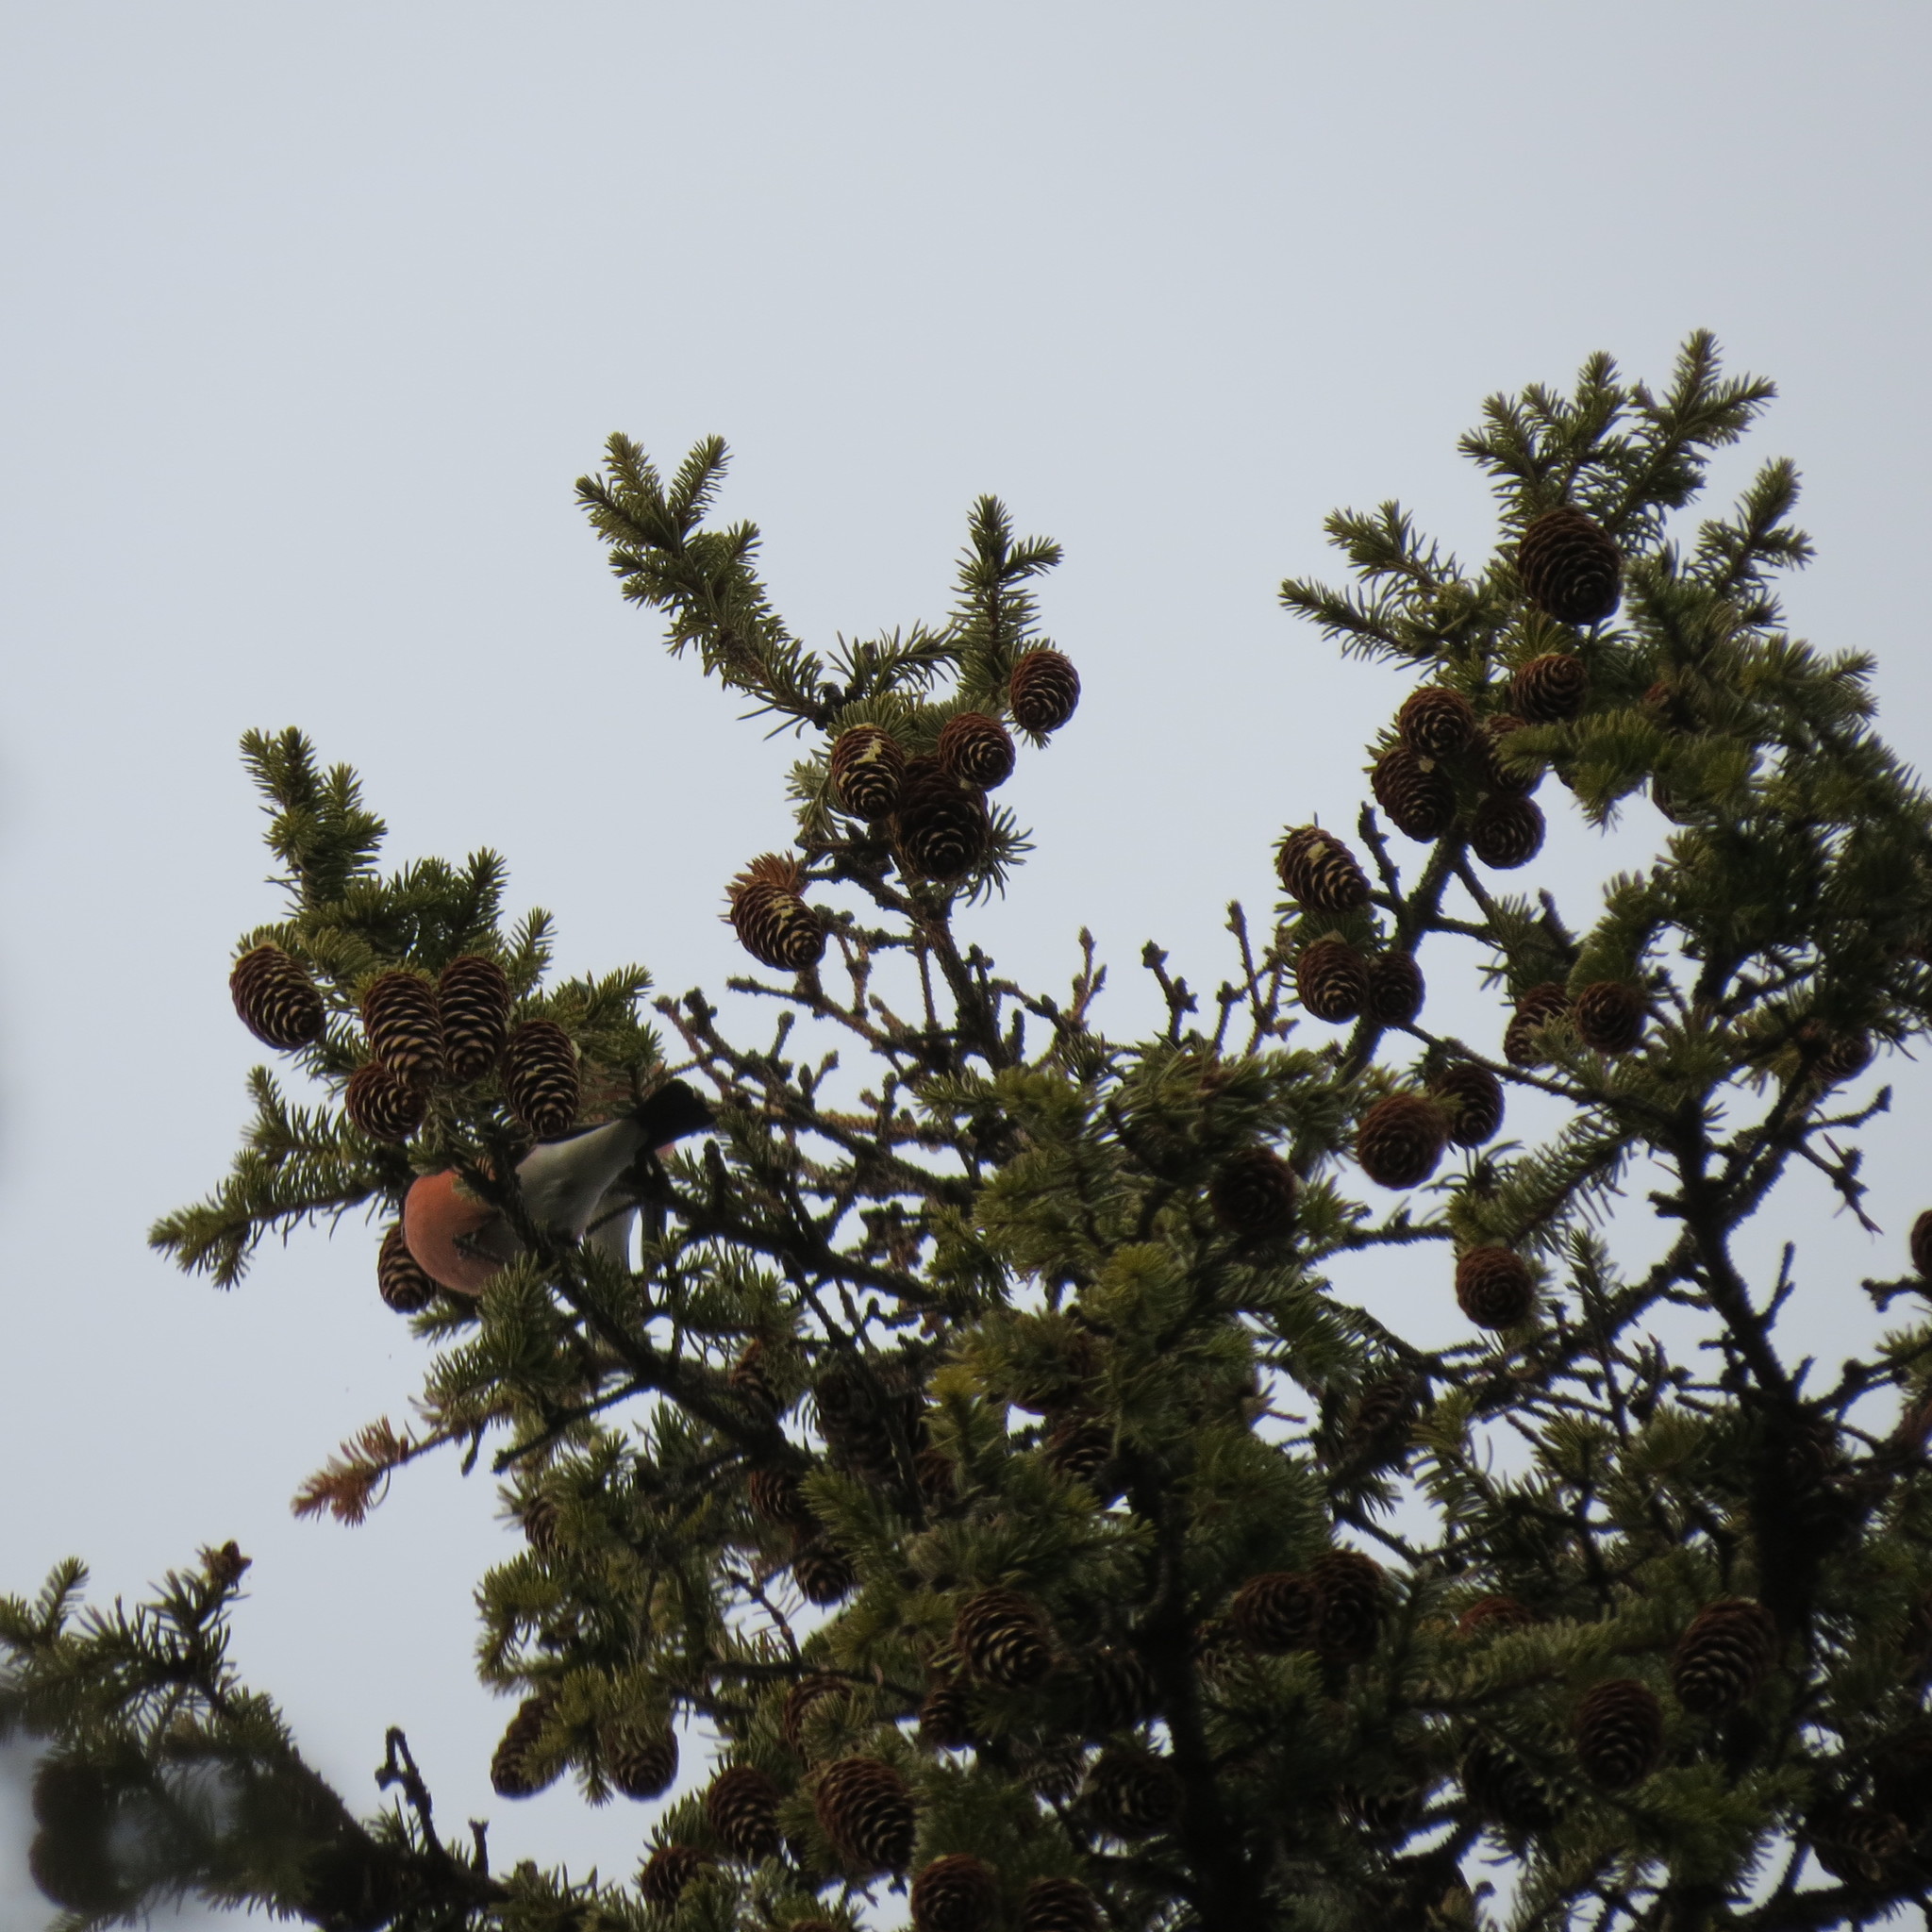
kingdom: Animalia
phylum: Chordata
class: Aves
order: Passeriformes
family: Fringillidae
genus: Pyrrhula
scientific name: Pyrrhula pyrrhula
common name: Eurasian bullfinch
